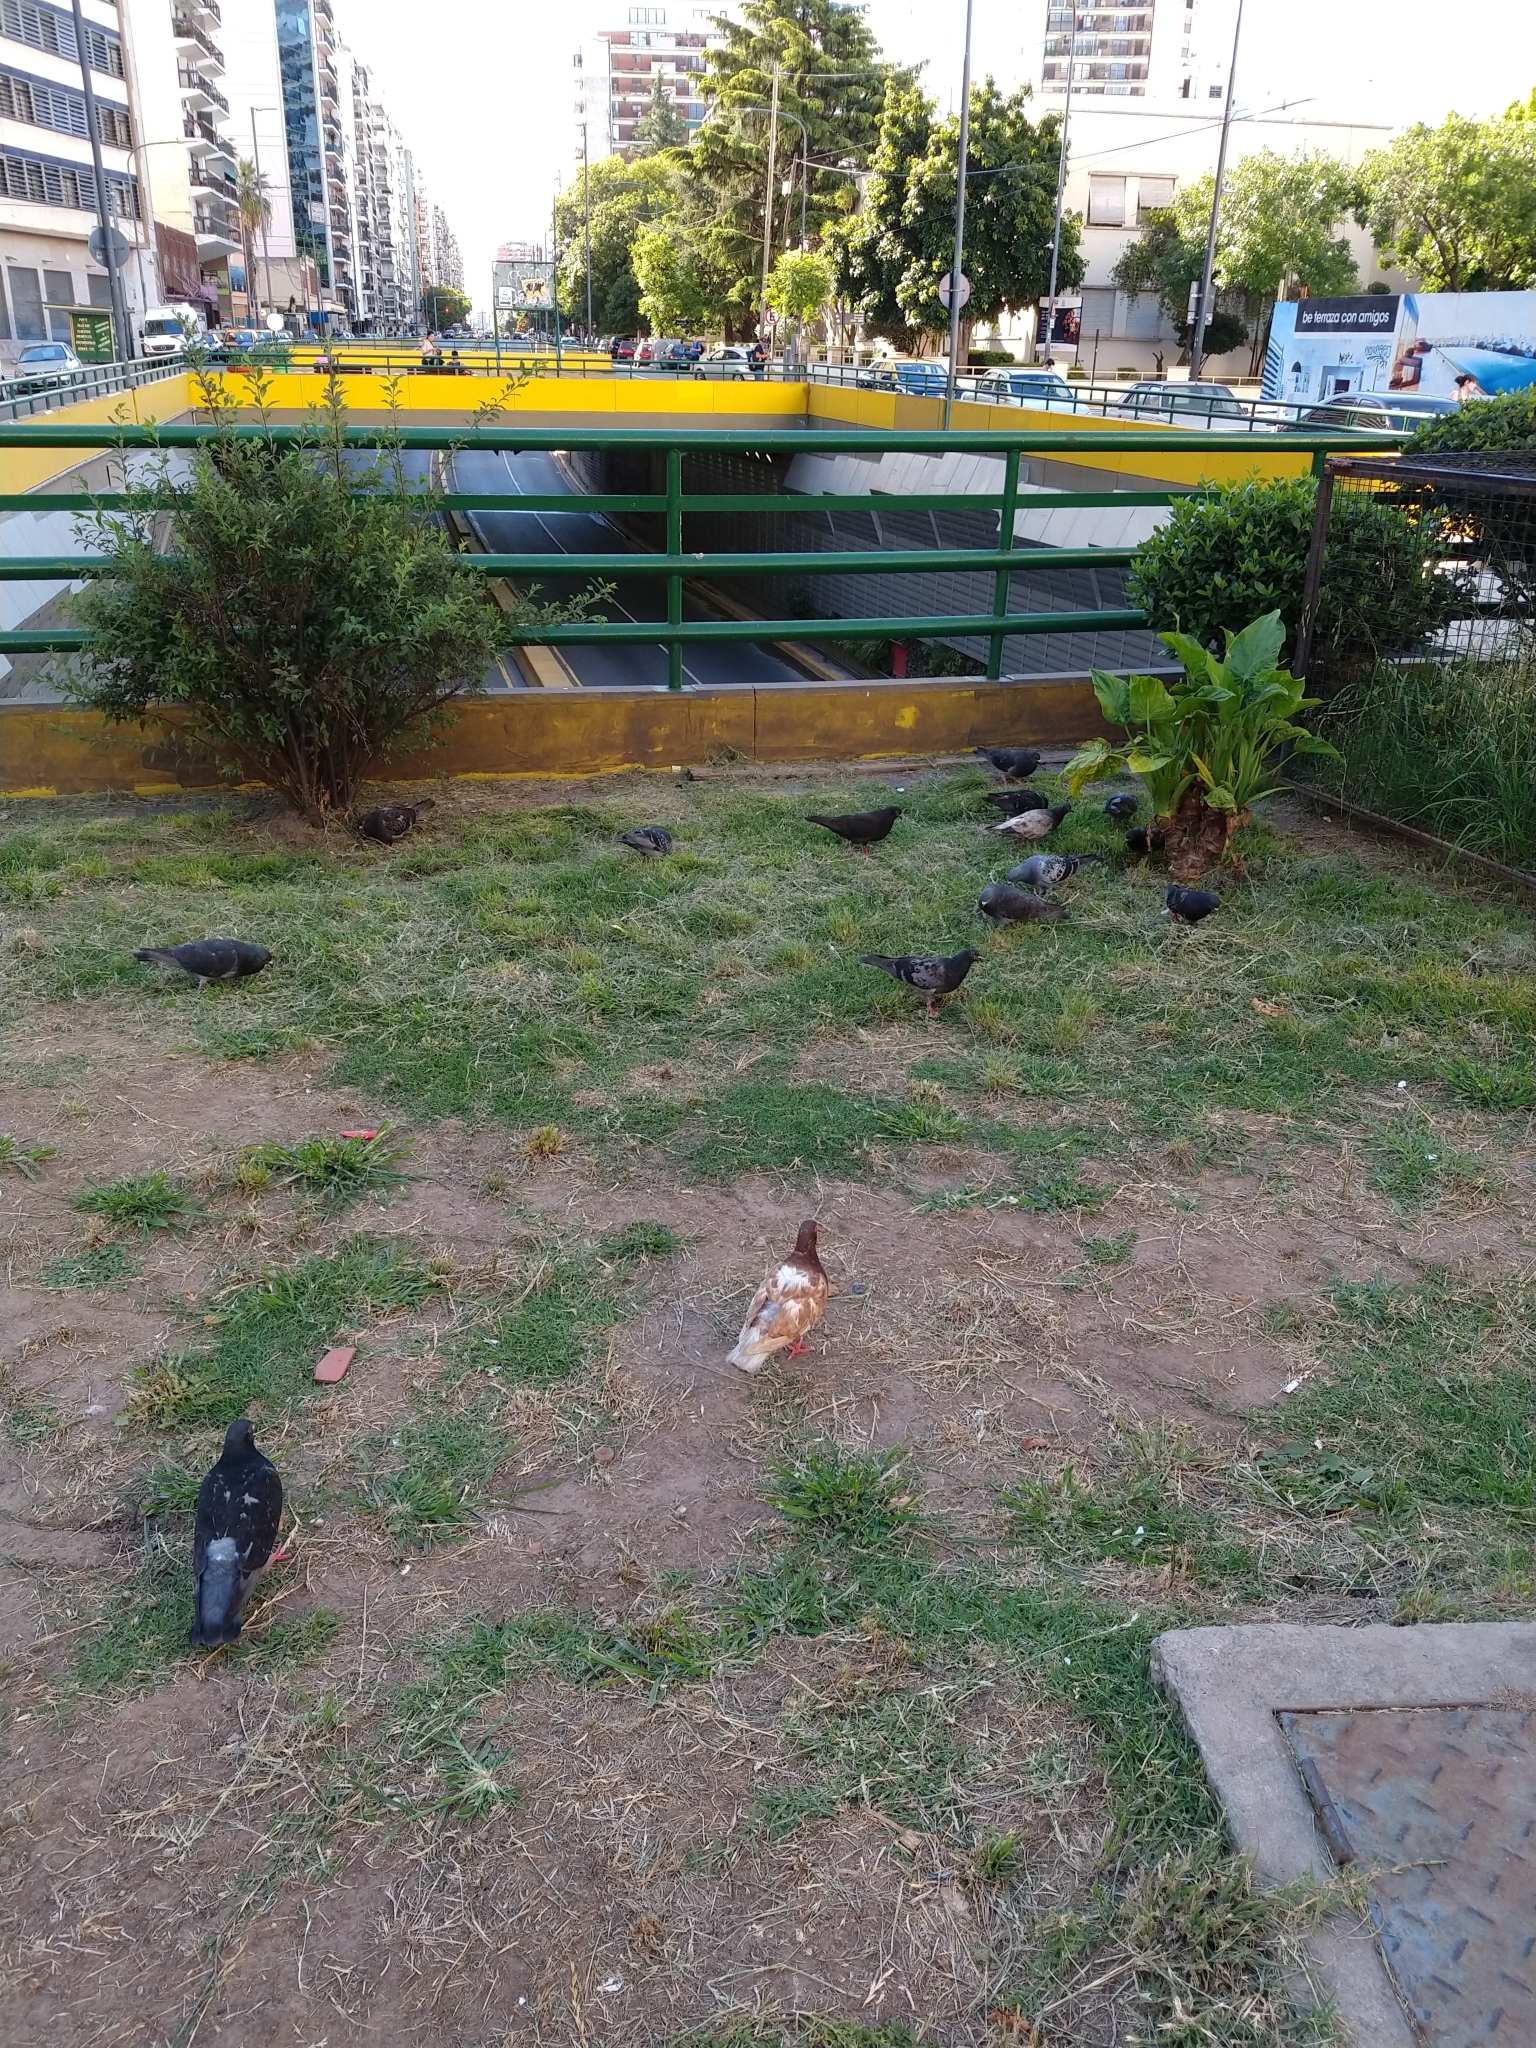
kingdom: Animalia
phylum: Chordata
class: Aves
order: Columbiformes
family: Columbidae
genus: Columba
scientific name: Columba livia
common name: Rock pigeon
